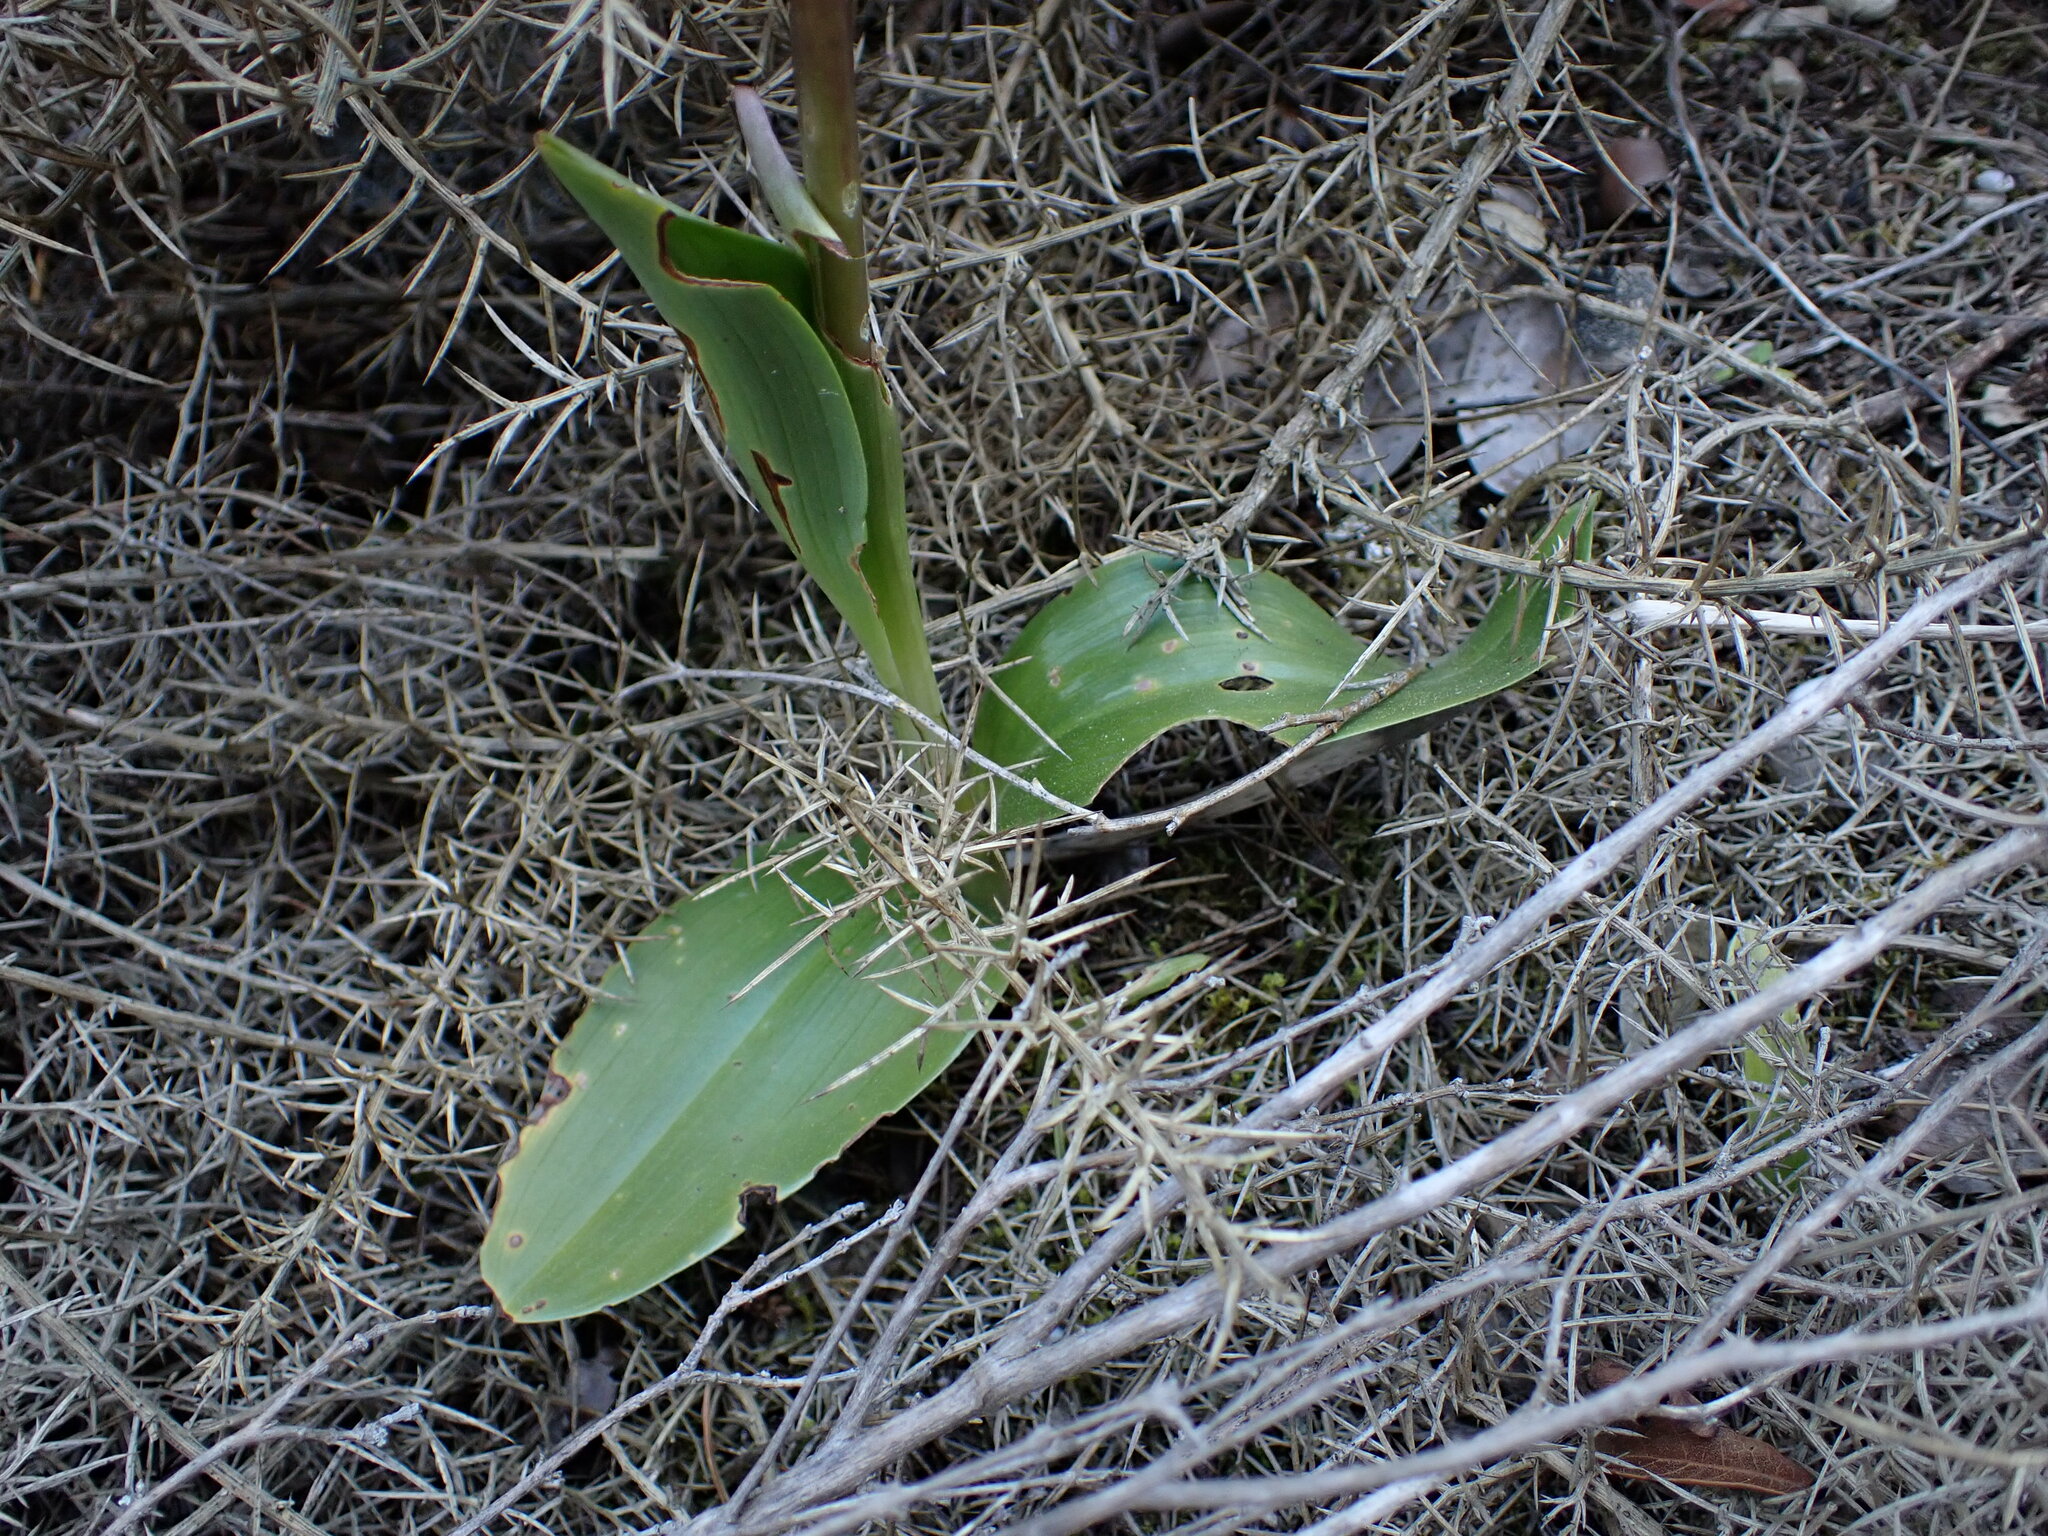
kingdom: Plantae
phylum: Tracheophyta
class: Liliopsida
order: Asparagales
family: Orchidaceae
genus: Himantoglossum
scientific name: Himantoglossum robertianum
